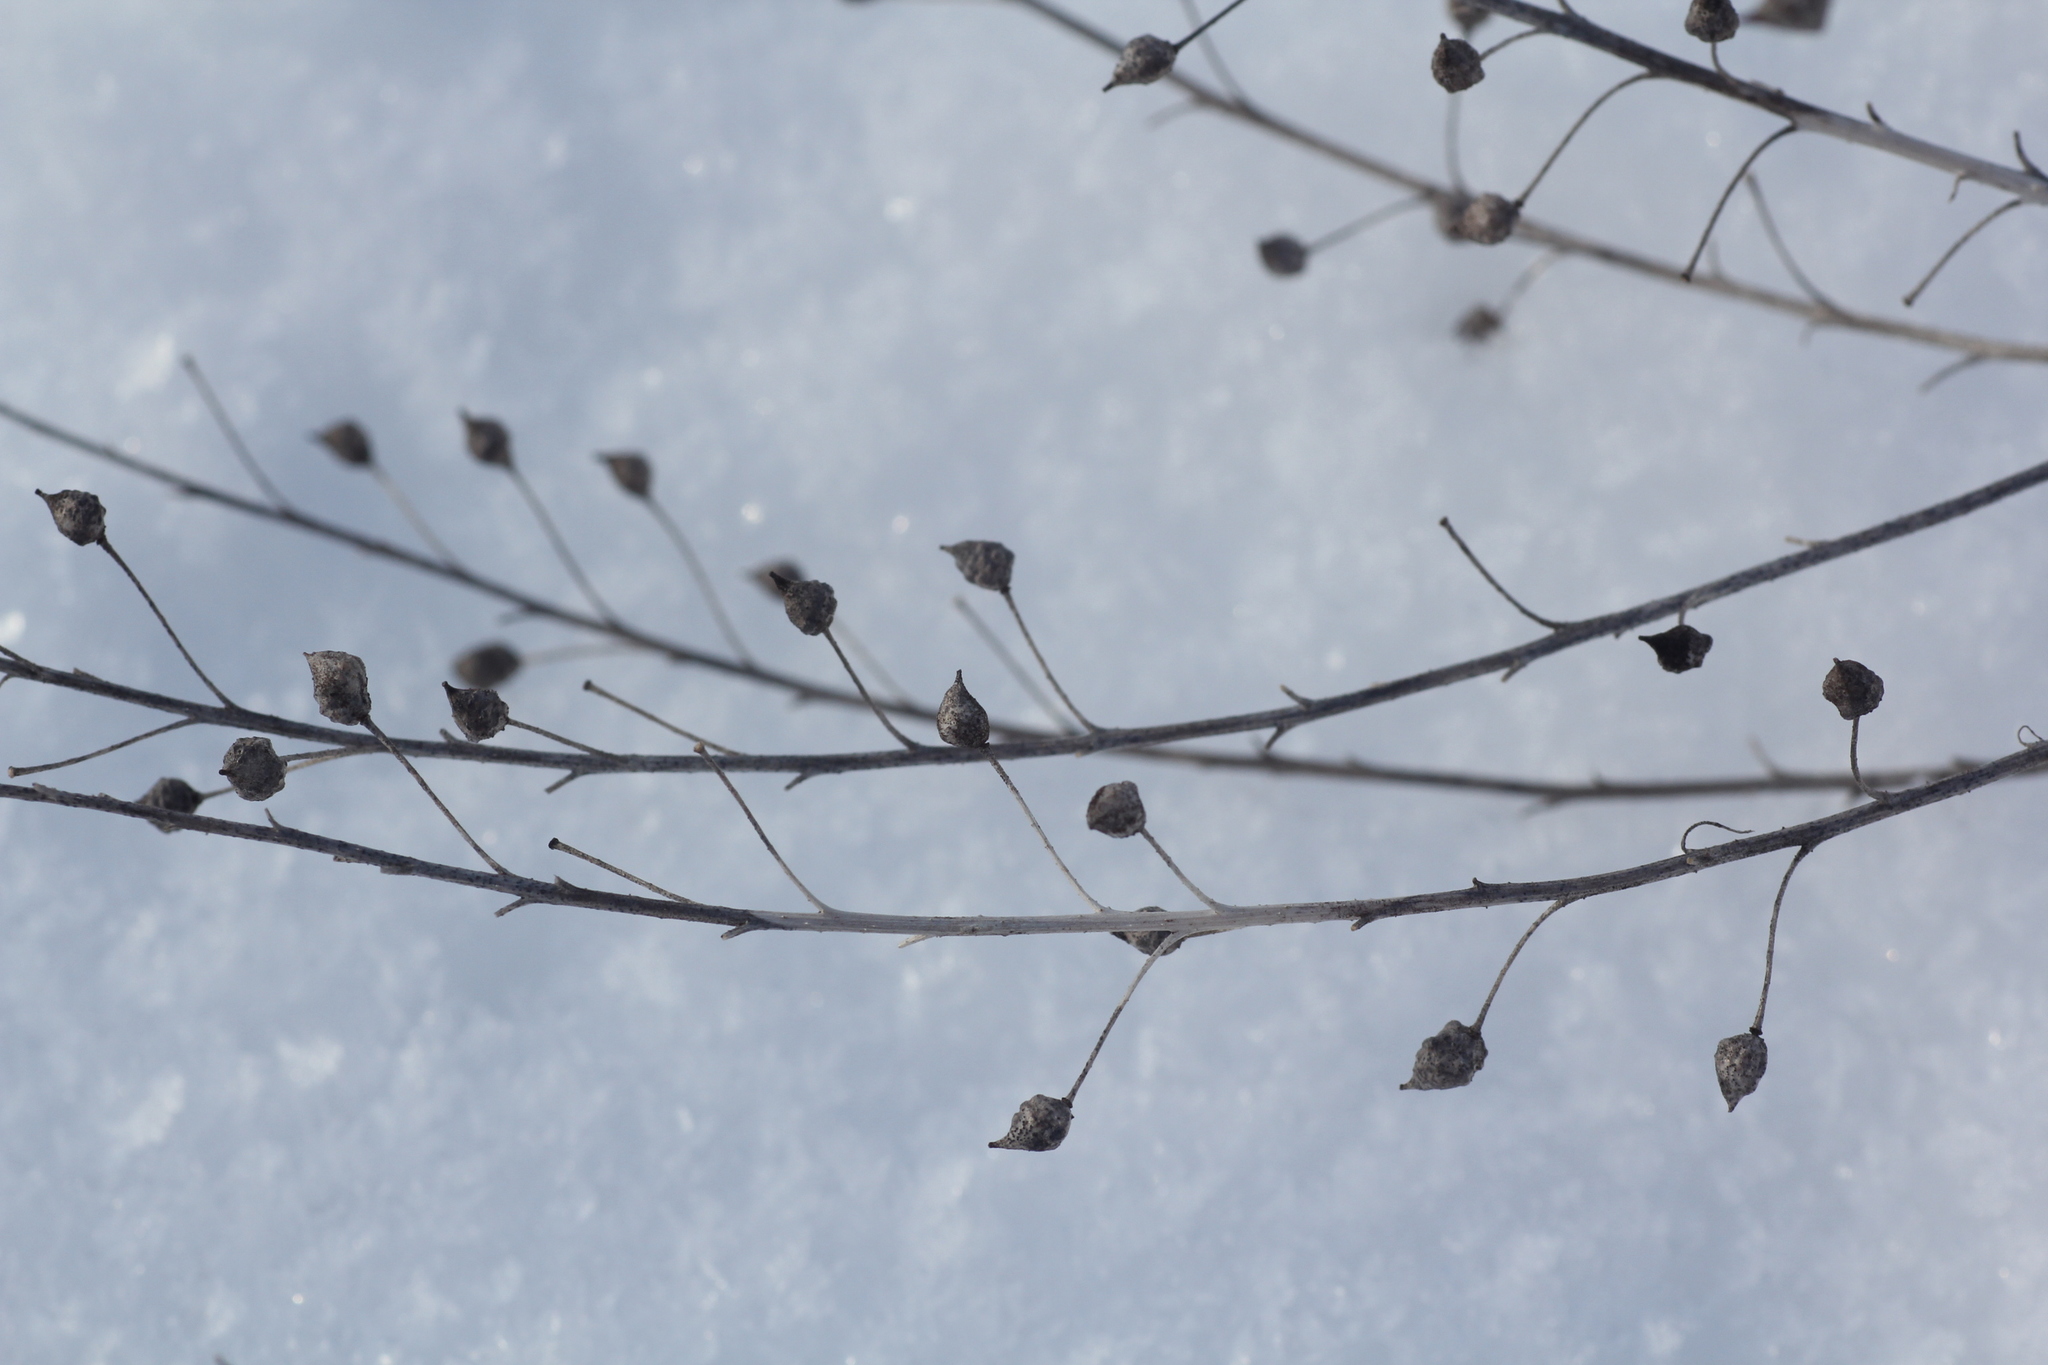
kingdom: Plantae
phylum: Tracheophyta
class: Magnoliopsida
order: Brassicales
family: Brassicaceae
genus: Bunias
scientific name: Bunias orientalis
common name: Warty-cabbage
